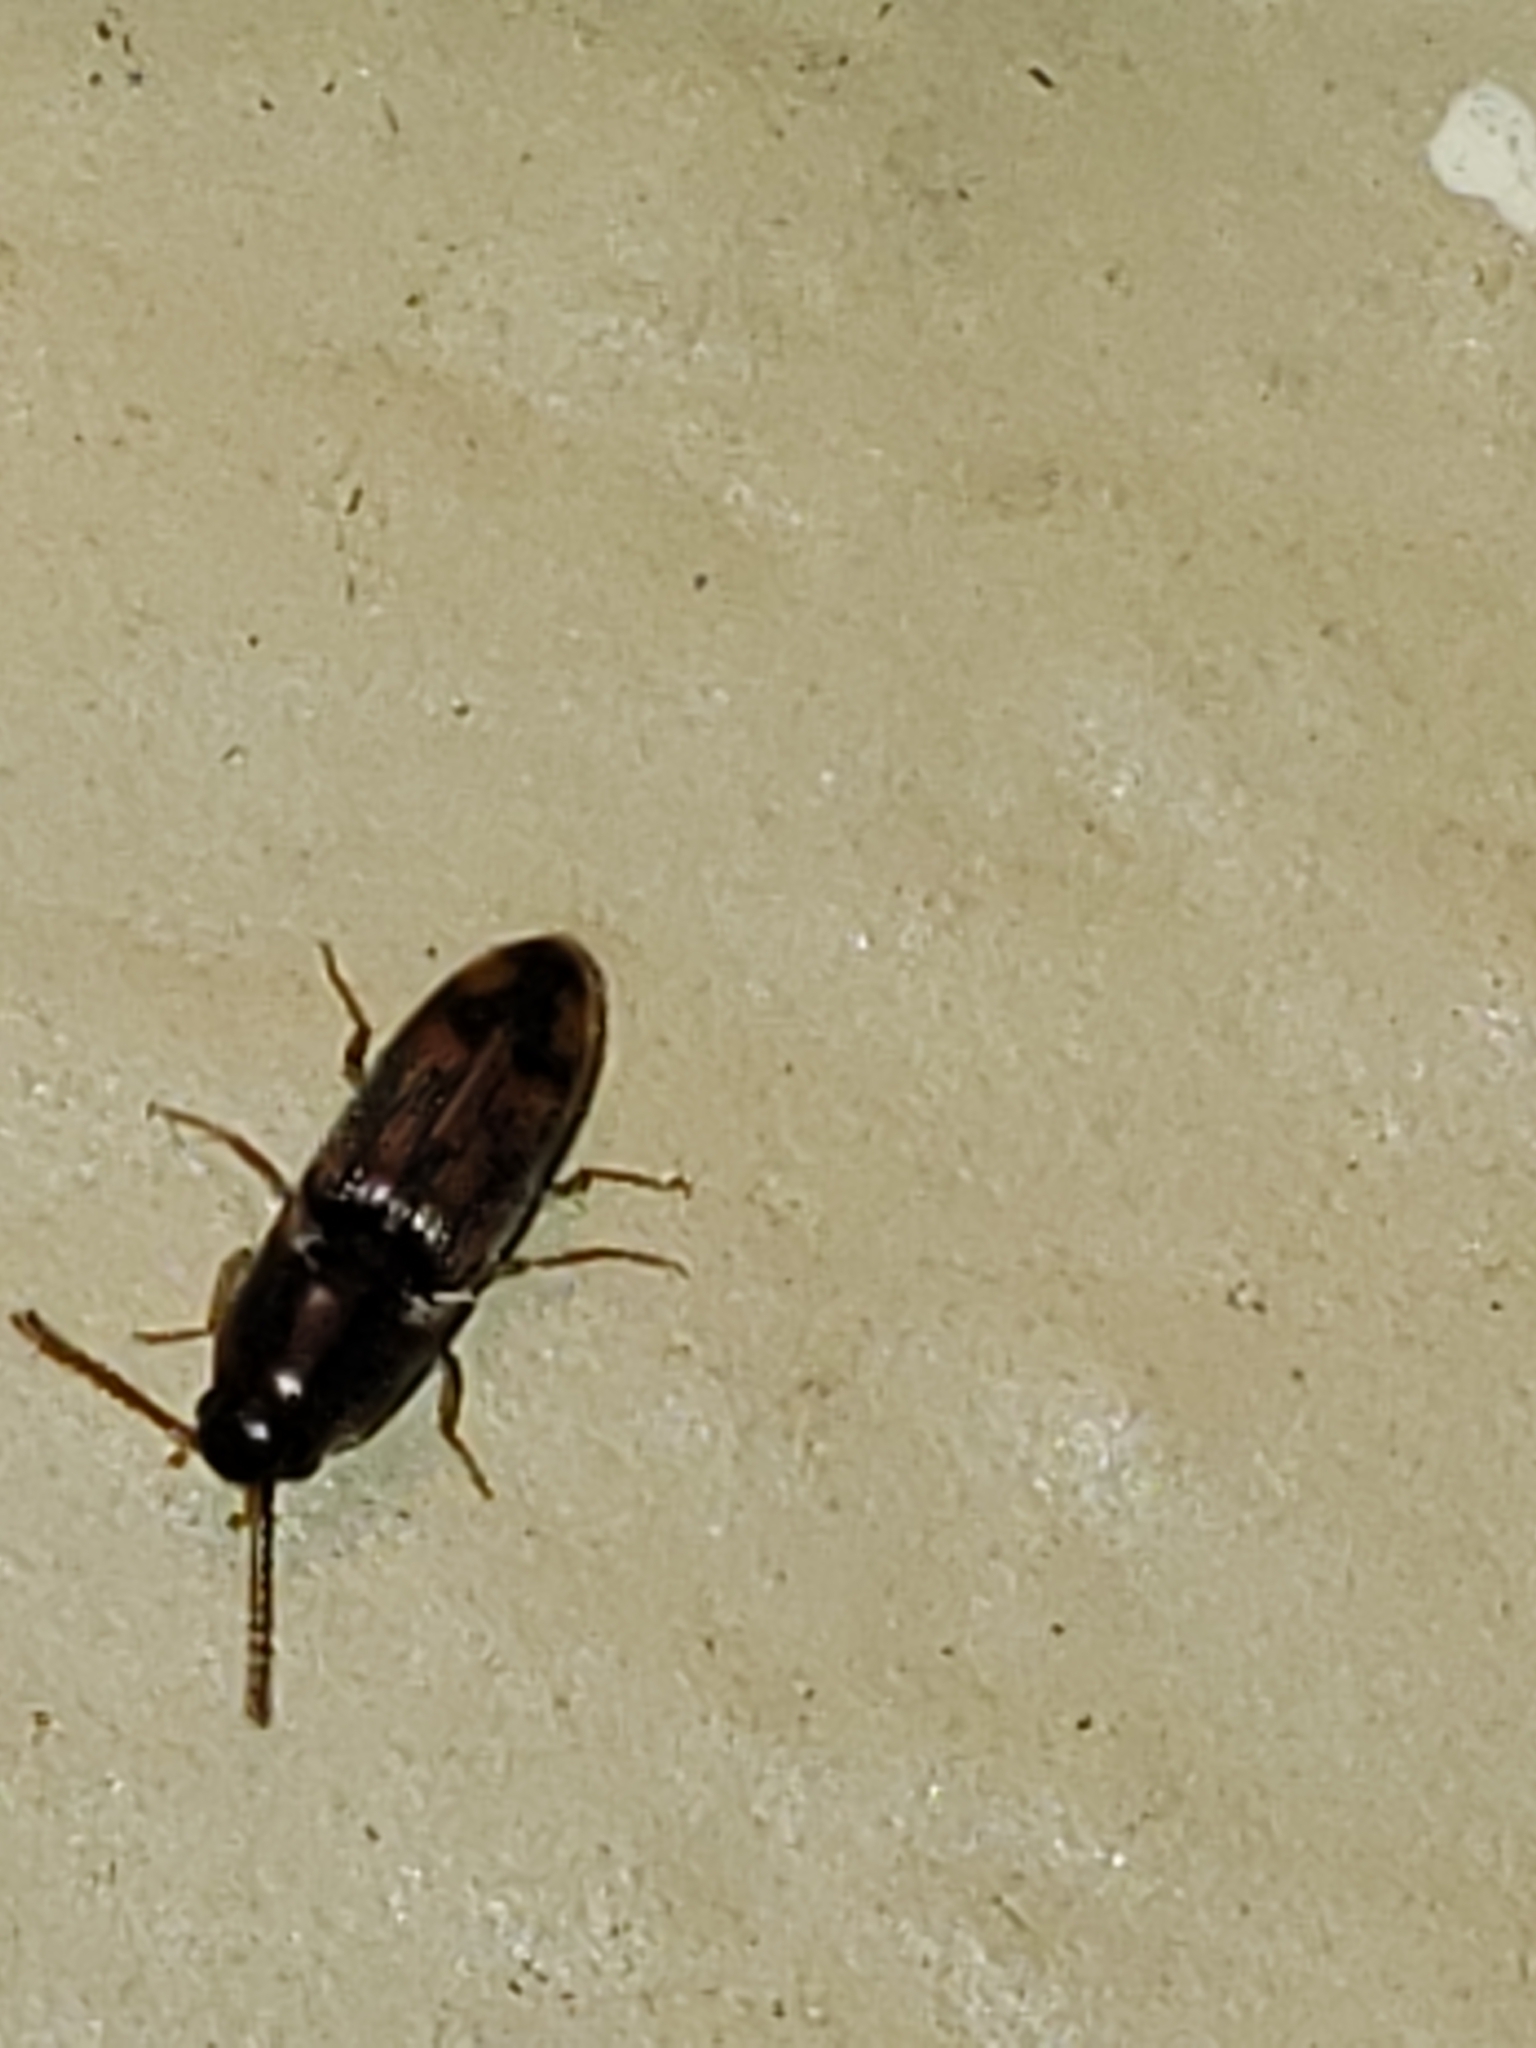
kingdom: Animalia
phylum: Arthropoda
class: Insecta
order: Coleoptera
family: Elateridae
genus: Monocrepidius
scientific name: Monocrepidius bellus
